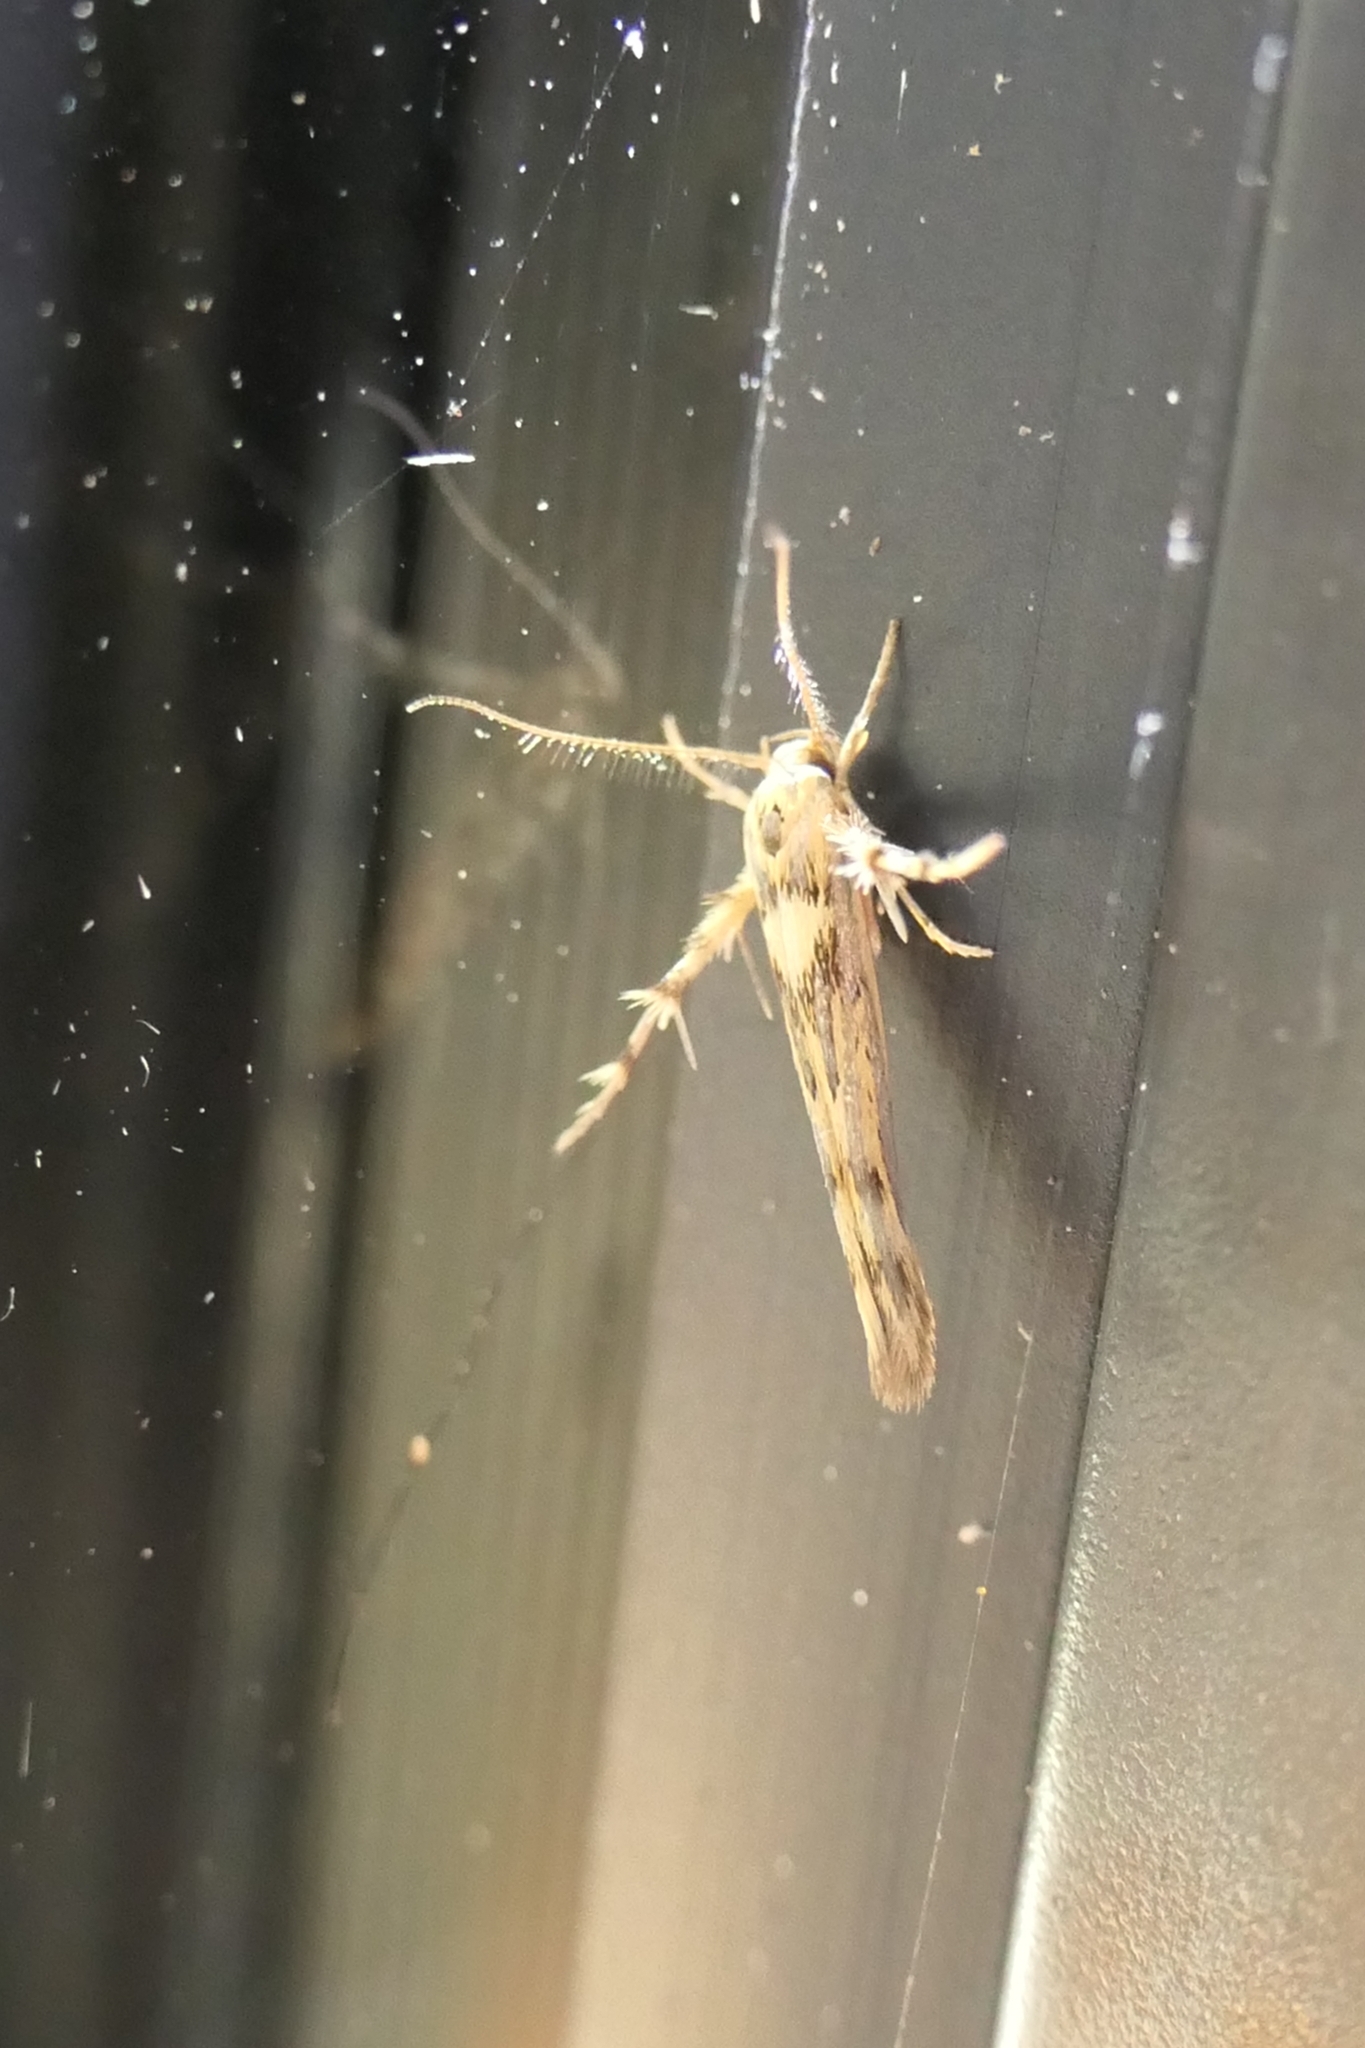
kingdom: Animalia
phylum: Arthropoda
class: Insecta
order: Lepidoptera
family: Stathmopodidae
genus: Stathmopoda
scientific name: Stathmopoda plumbiflua
